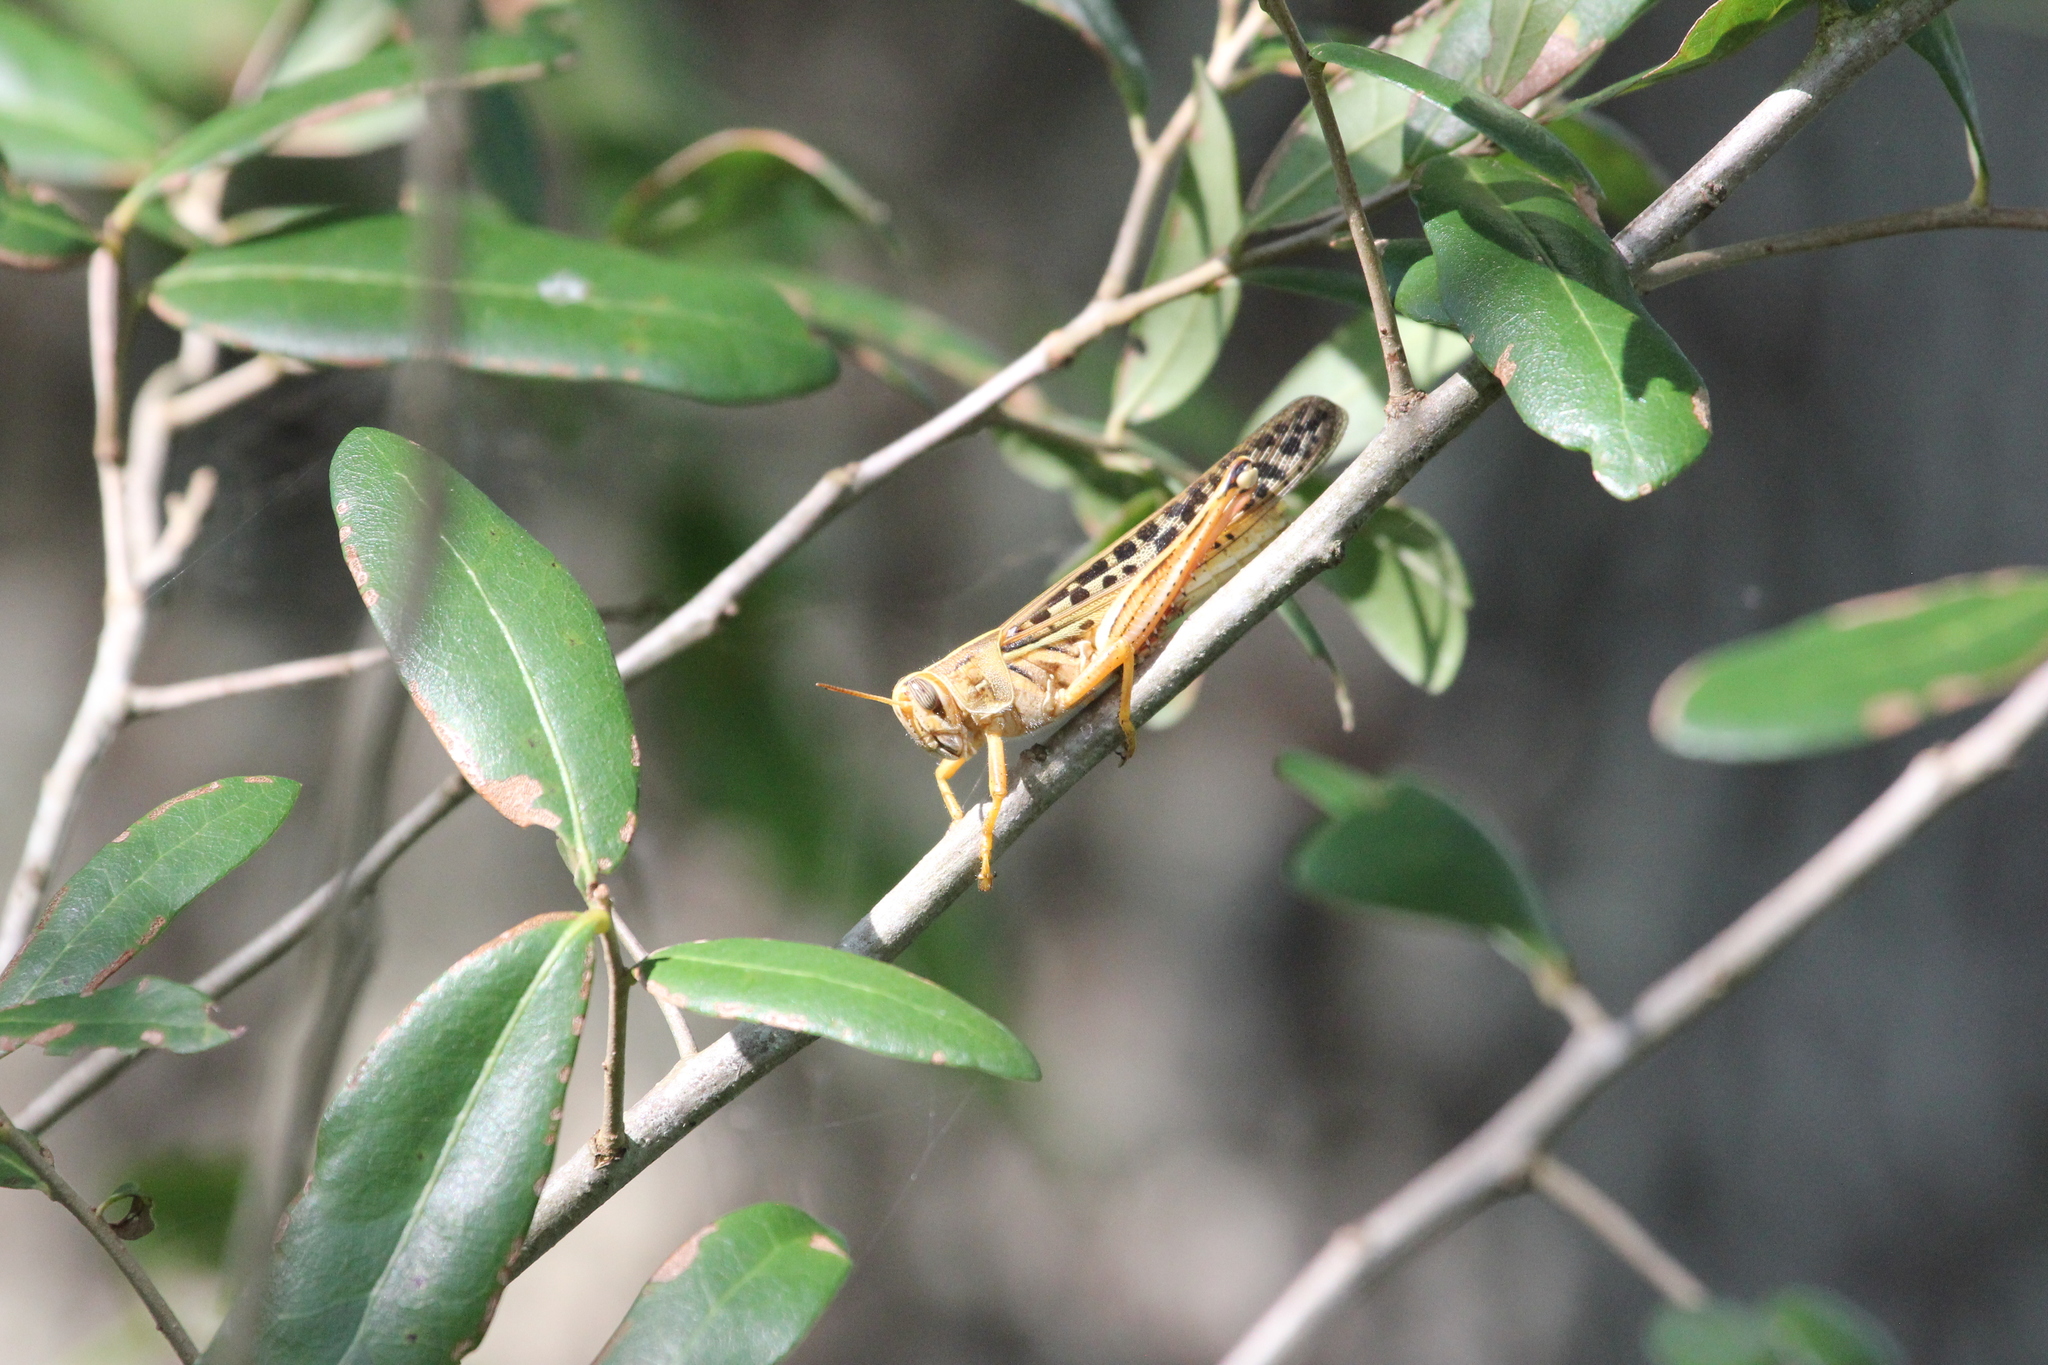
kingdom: Animalia
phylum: Arthropoda
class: Insecta
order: Orthoptera
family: Acrididae
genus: Schistocerca
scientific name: Schistocerca americana
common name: American bird locust
